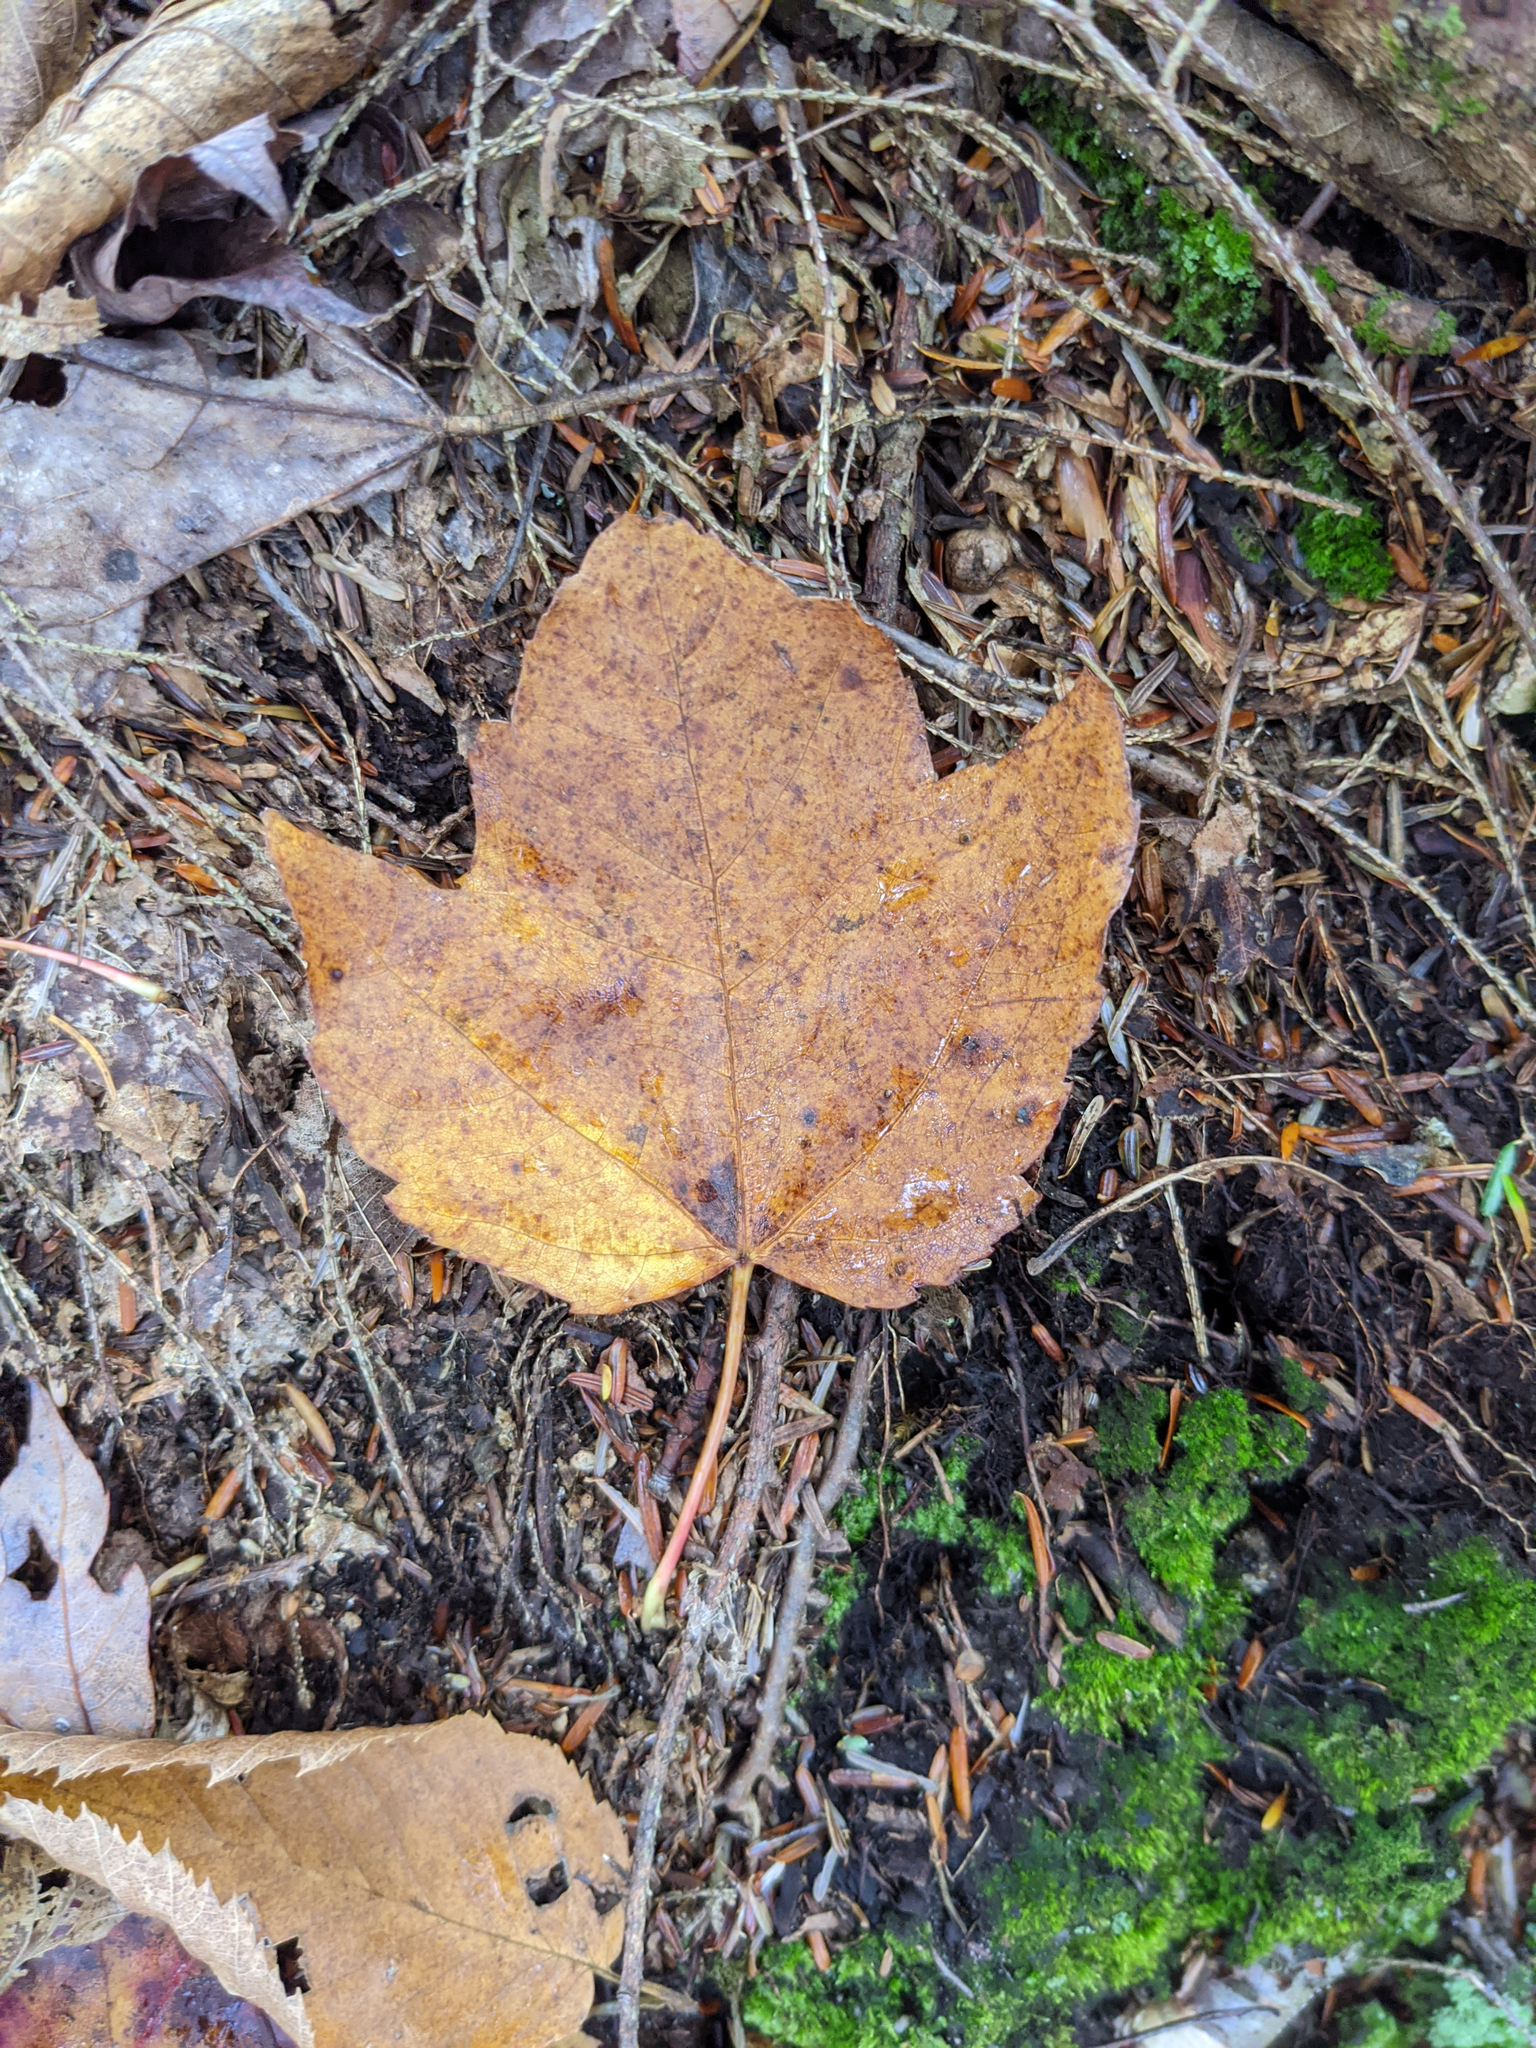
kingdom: Plantae
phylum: Tracheophyta
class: Magnoliopsida
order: Sapindales
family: Sapindaceae
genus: Acer
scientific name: Acer rubrum
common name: Red maple
